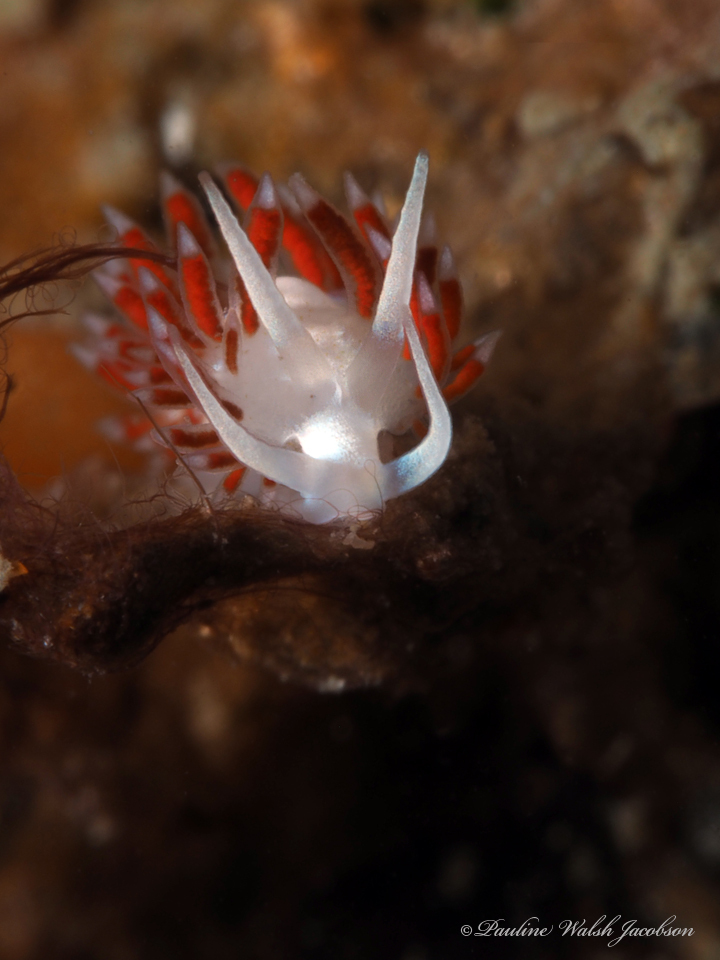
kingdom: Animalia
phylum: Mollusca
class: Gastropoda
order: Nudibranchia
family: Flabellinidae
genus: Flabellina
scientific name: Flabellina dushia
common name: Dushia flabellina
